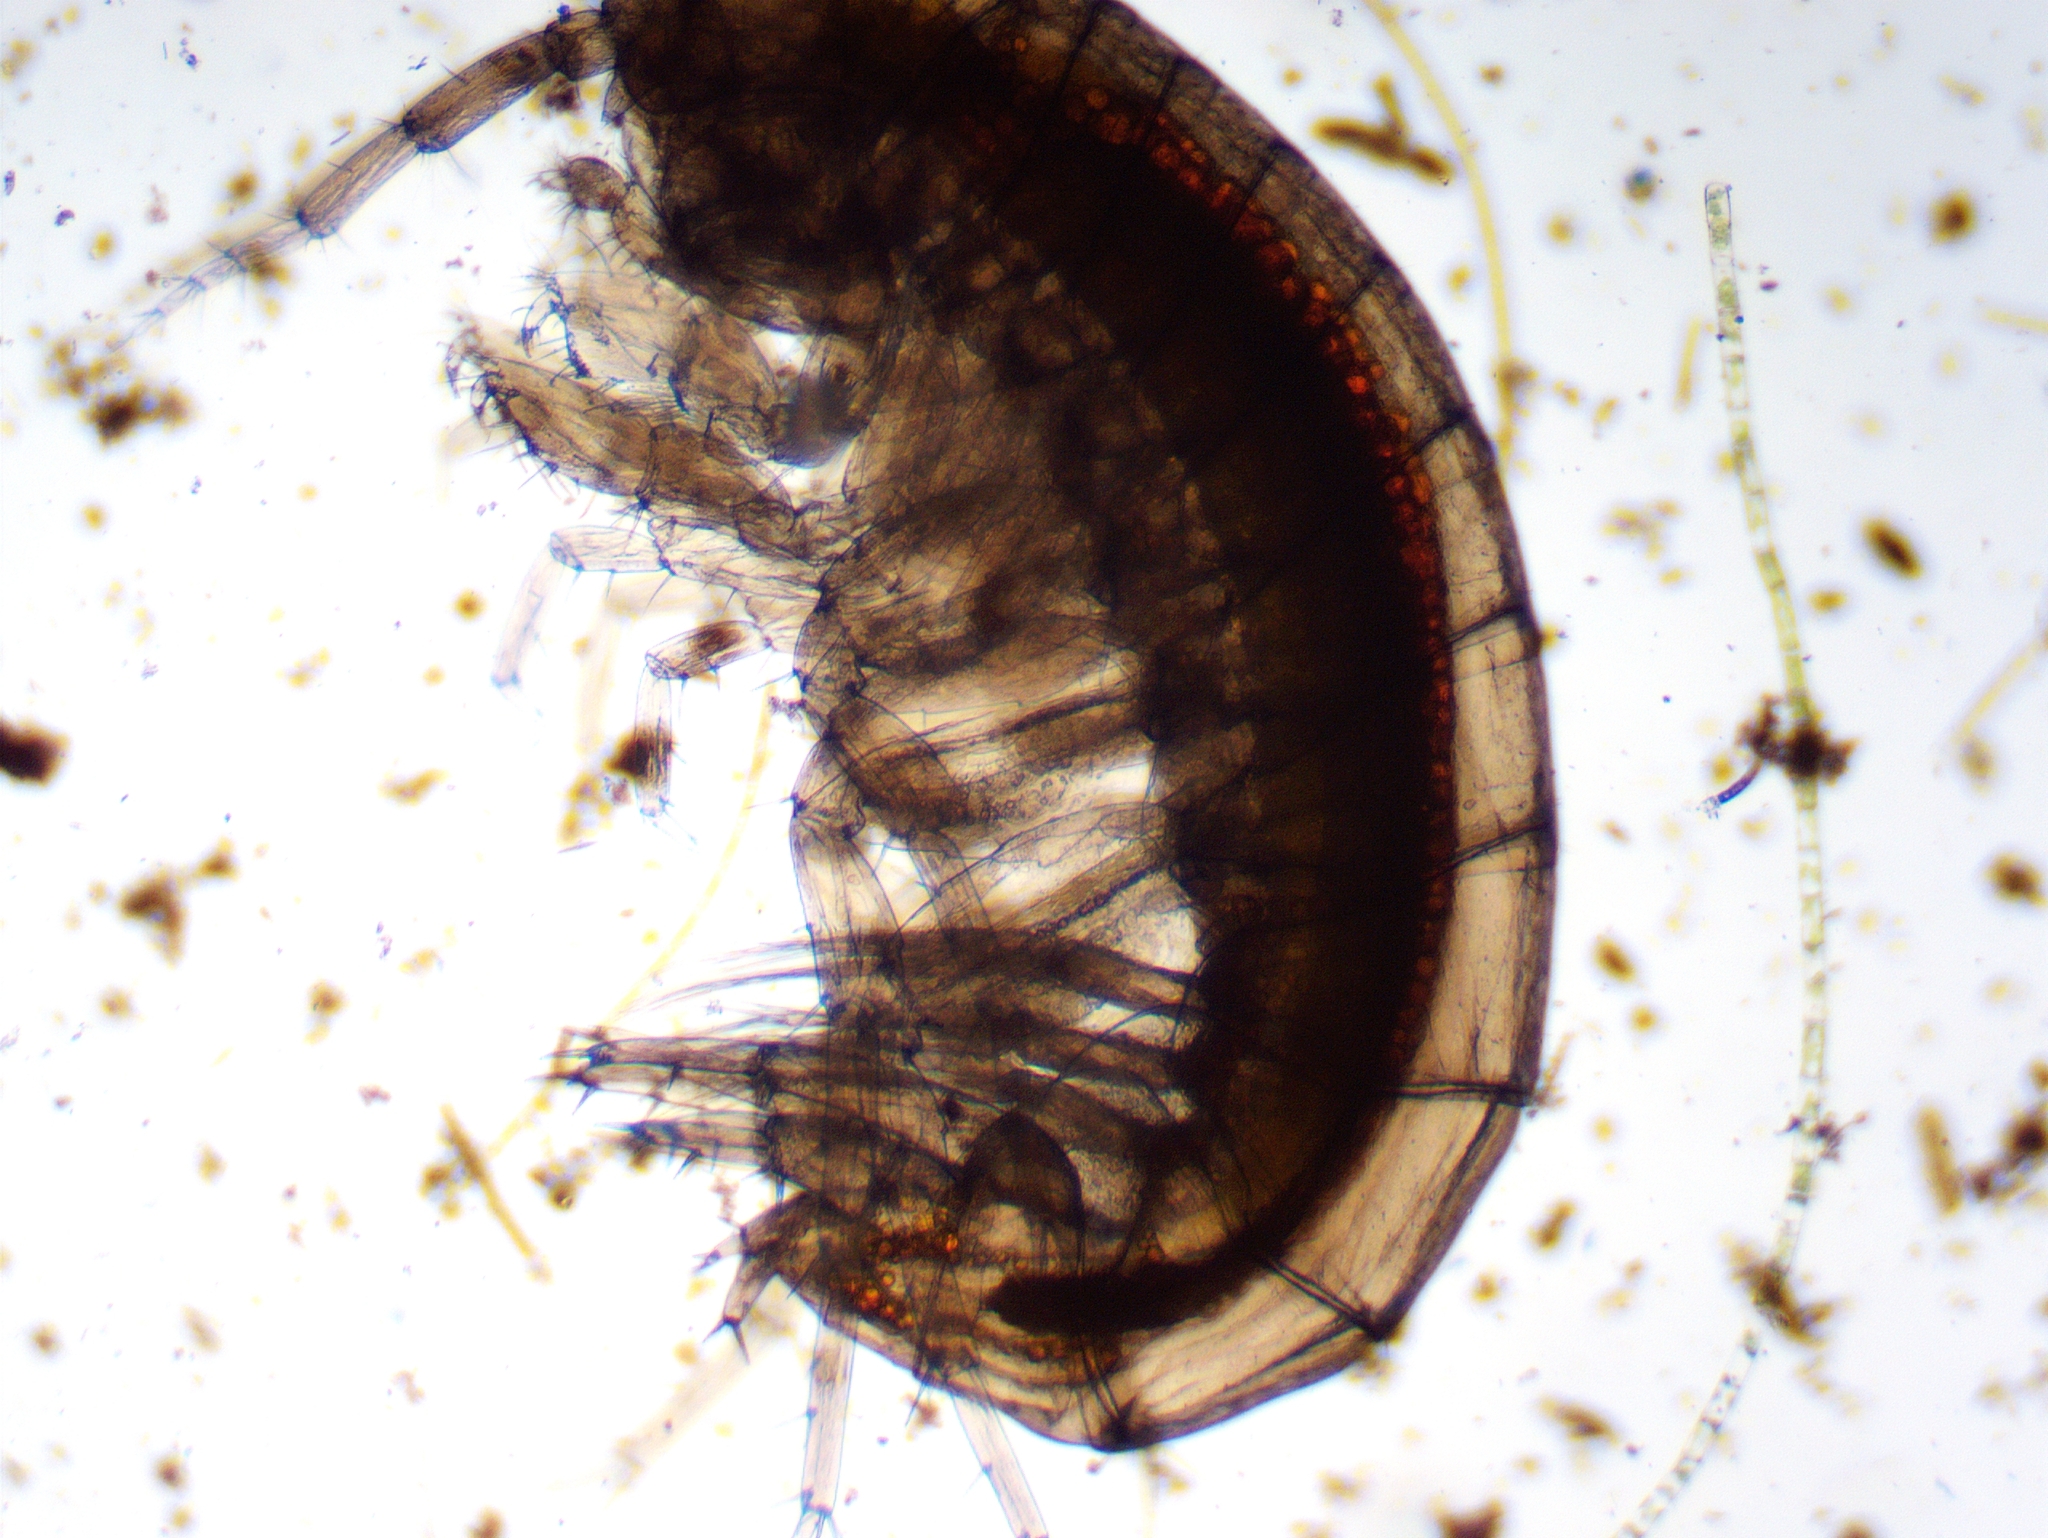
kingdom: Animalia
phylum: Arthropoda
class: Malacostraca
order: Amphipoda
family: Crangonyctidae
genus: Sicifera
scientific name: Sicifera chamberlaini
